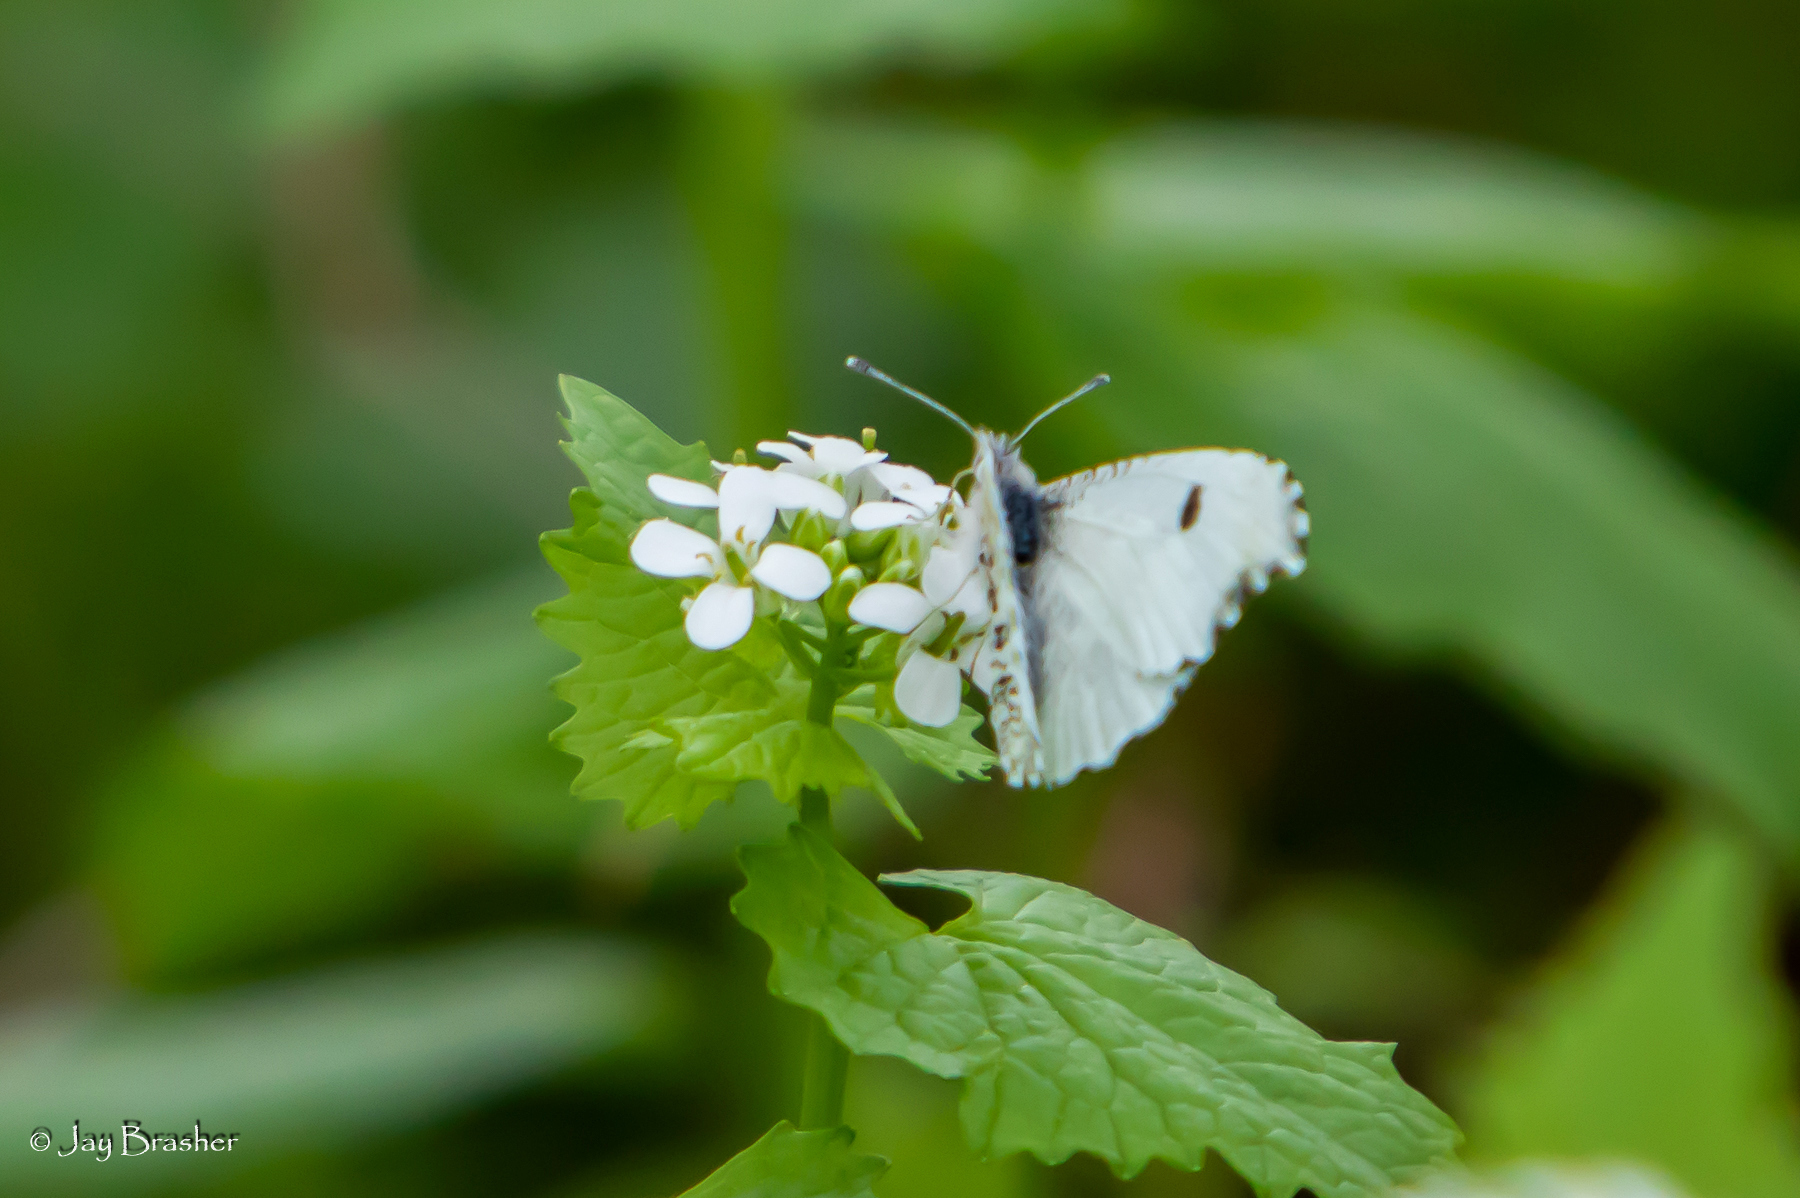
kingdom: Animalia
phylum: Arthropoda
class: Insecta
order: Lepidoptera
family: Pieridae
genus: Anthocharis
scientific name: Anthocharis midea
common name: Falcate orangetip
